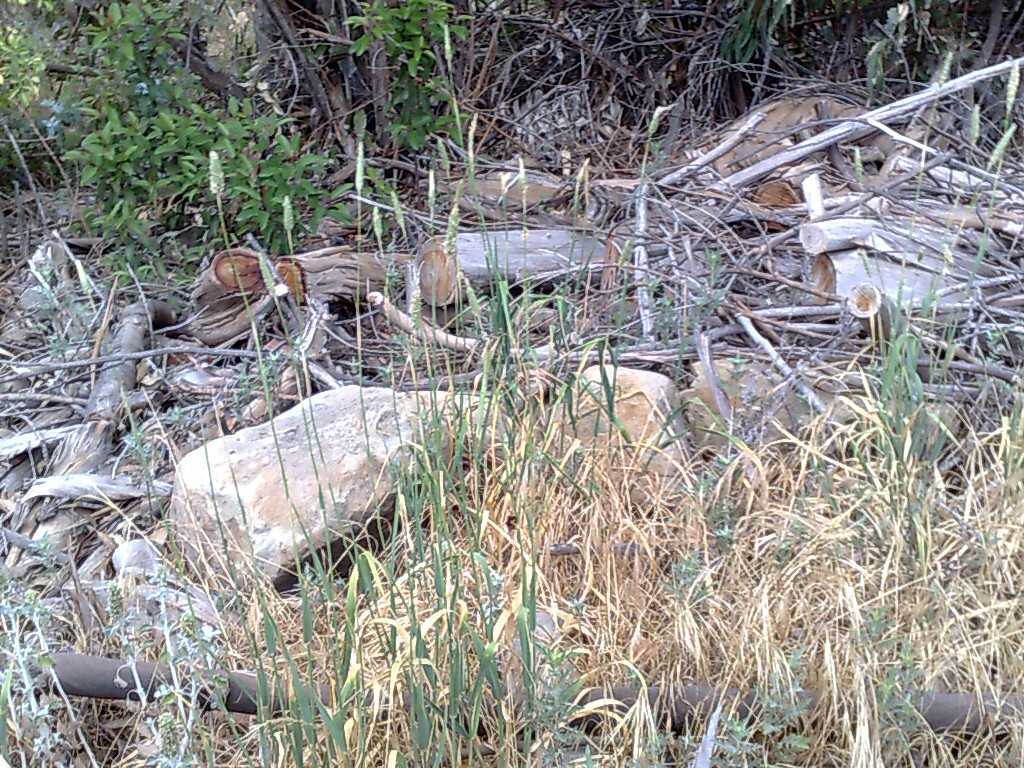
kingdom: Plantae
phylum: Tracheophyta
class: Liliopsida
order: Poales
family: Poaceae
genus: Phalaris
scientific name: Phalaris aquatica
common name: Bulbous canary-grass
